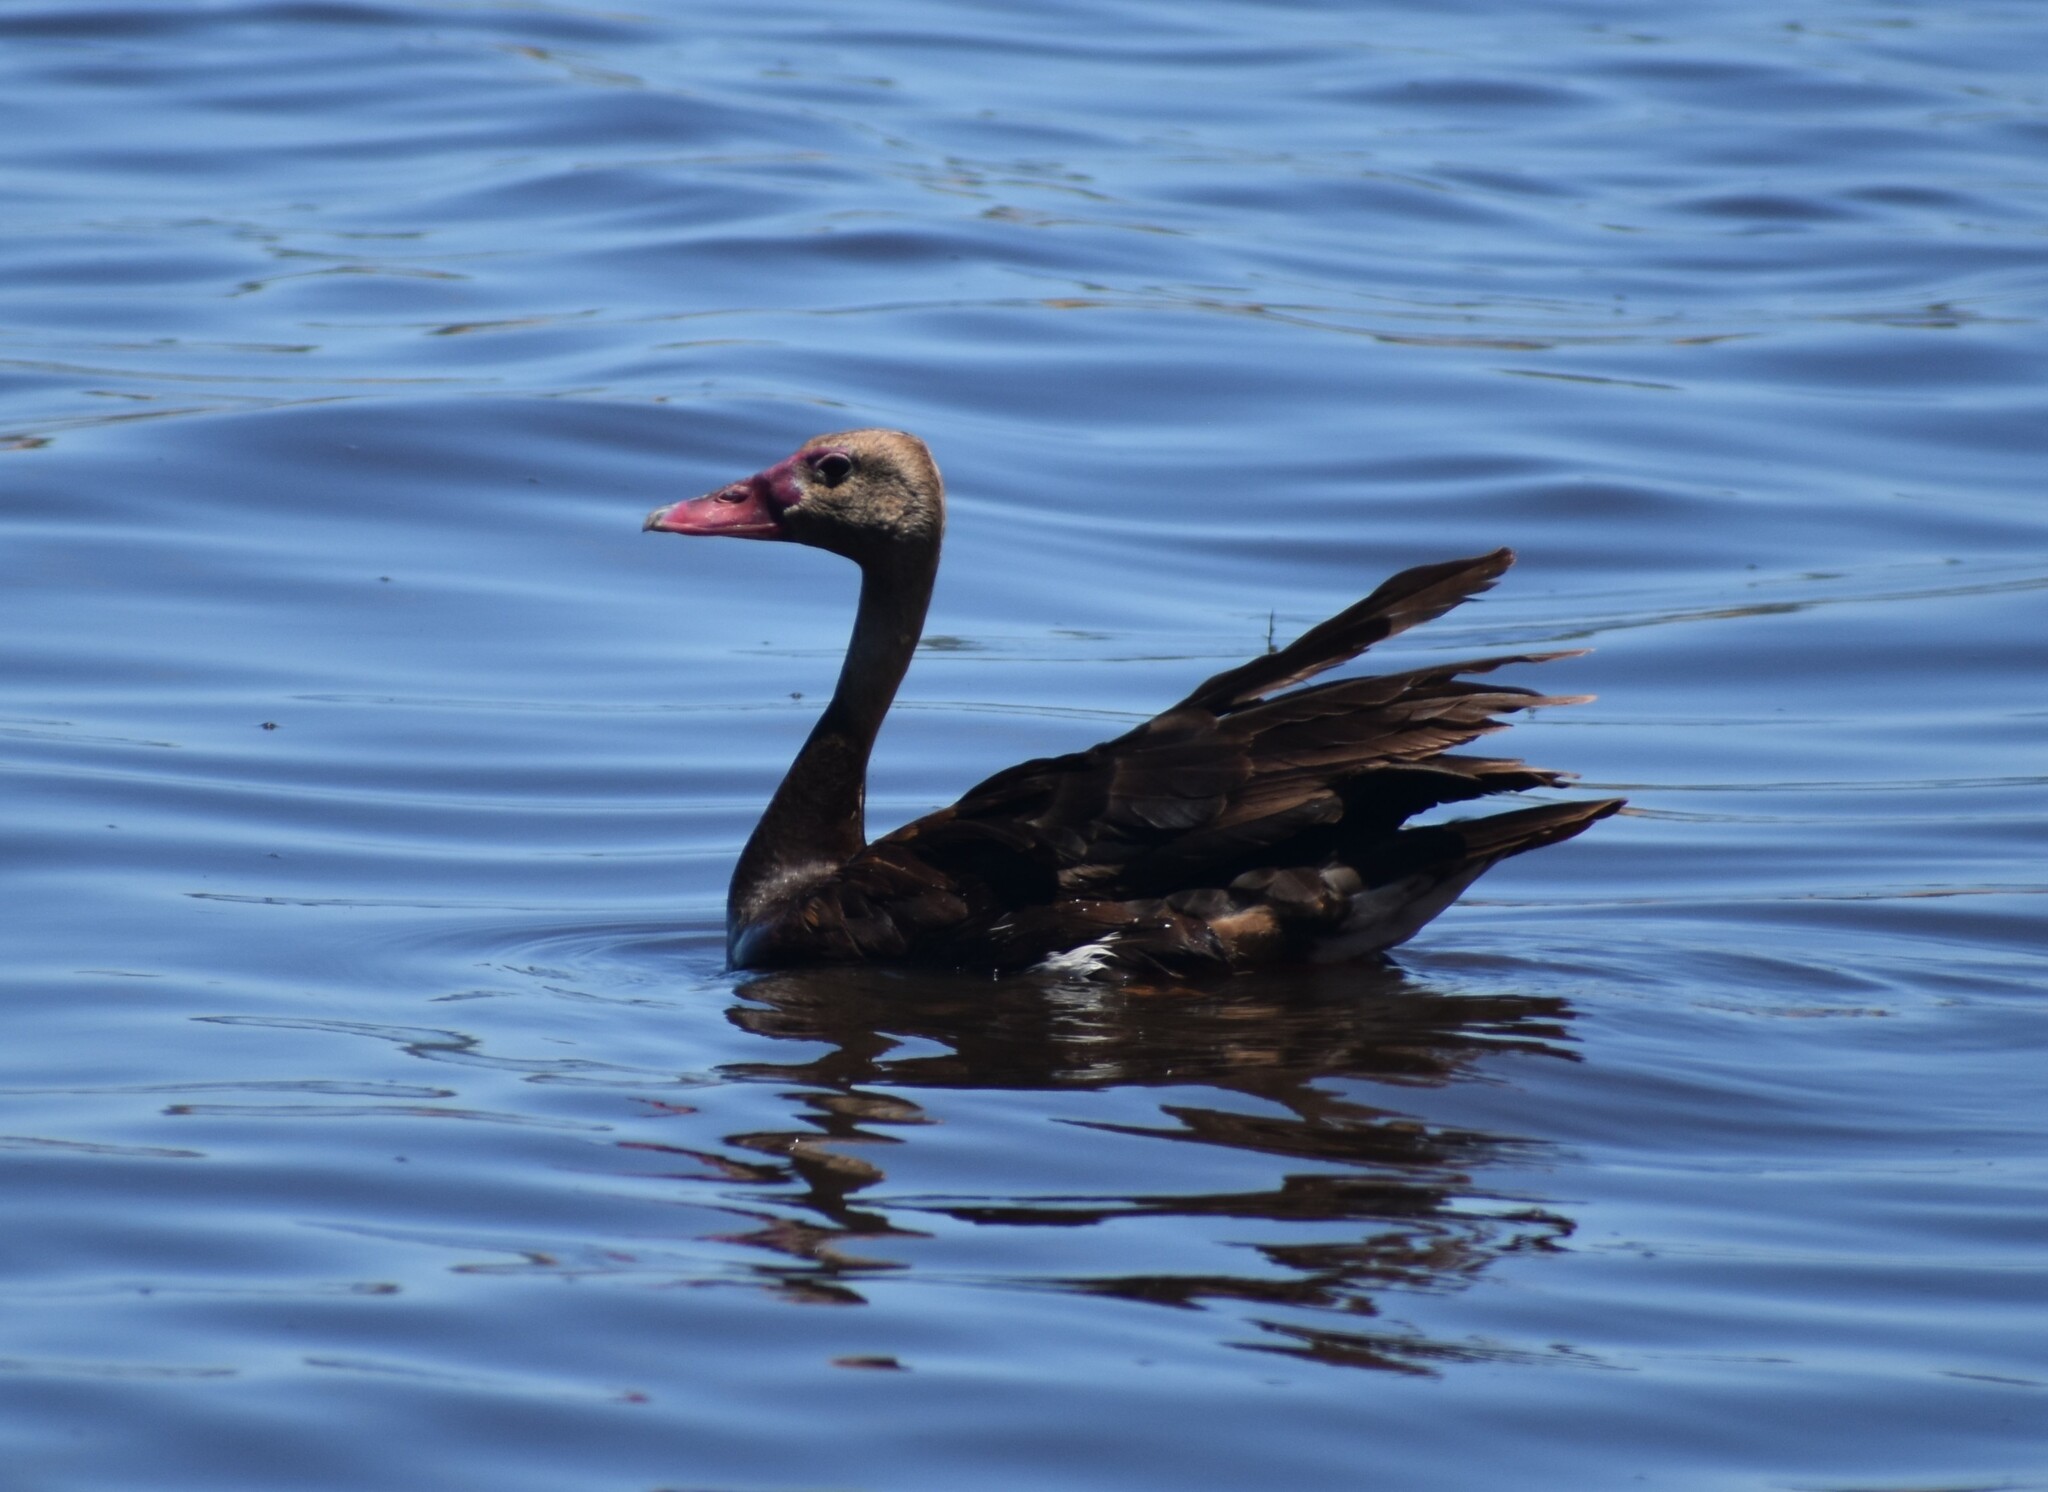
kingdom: Animalia
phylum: Chordata
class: Aves
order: Anseriformes
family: Anatidae
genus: Plectropterus
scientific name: Plectropterus gambensis
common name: Spur-winged goose
